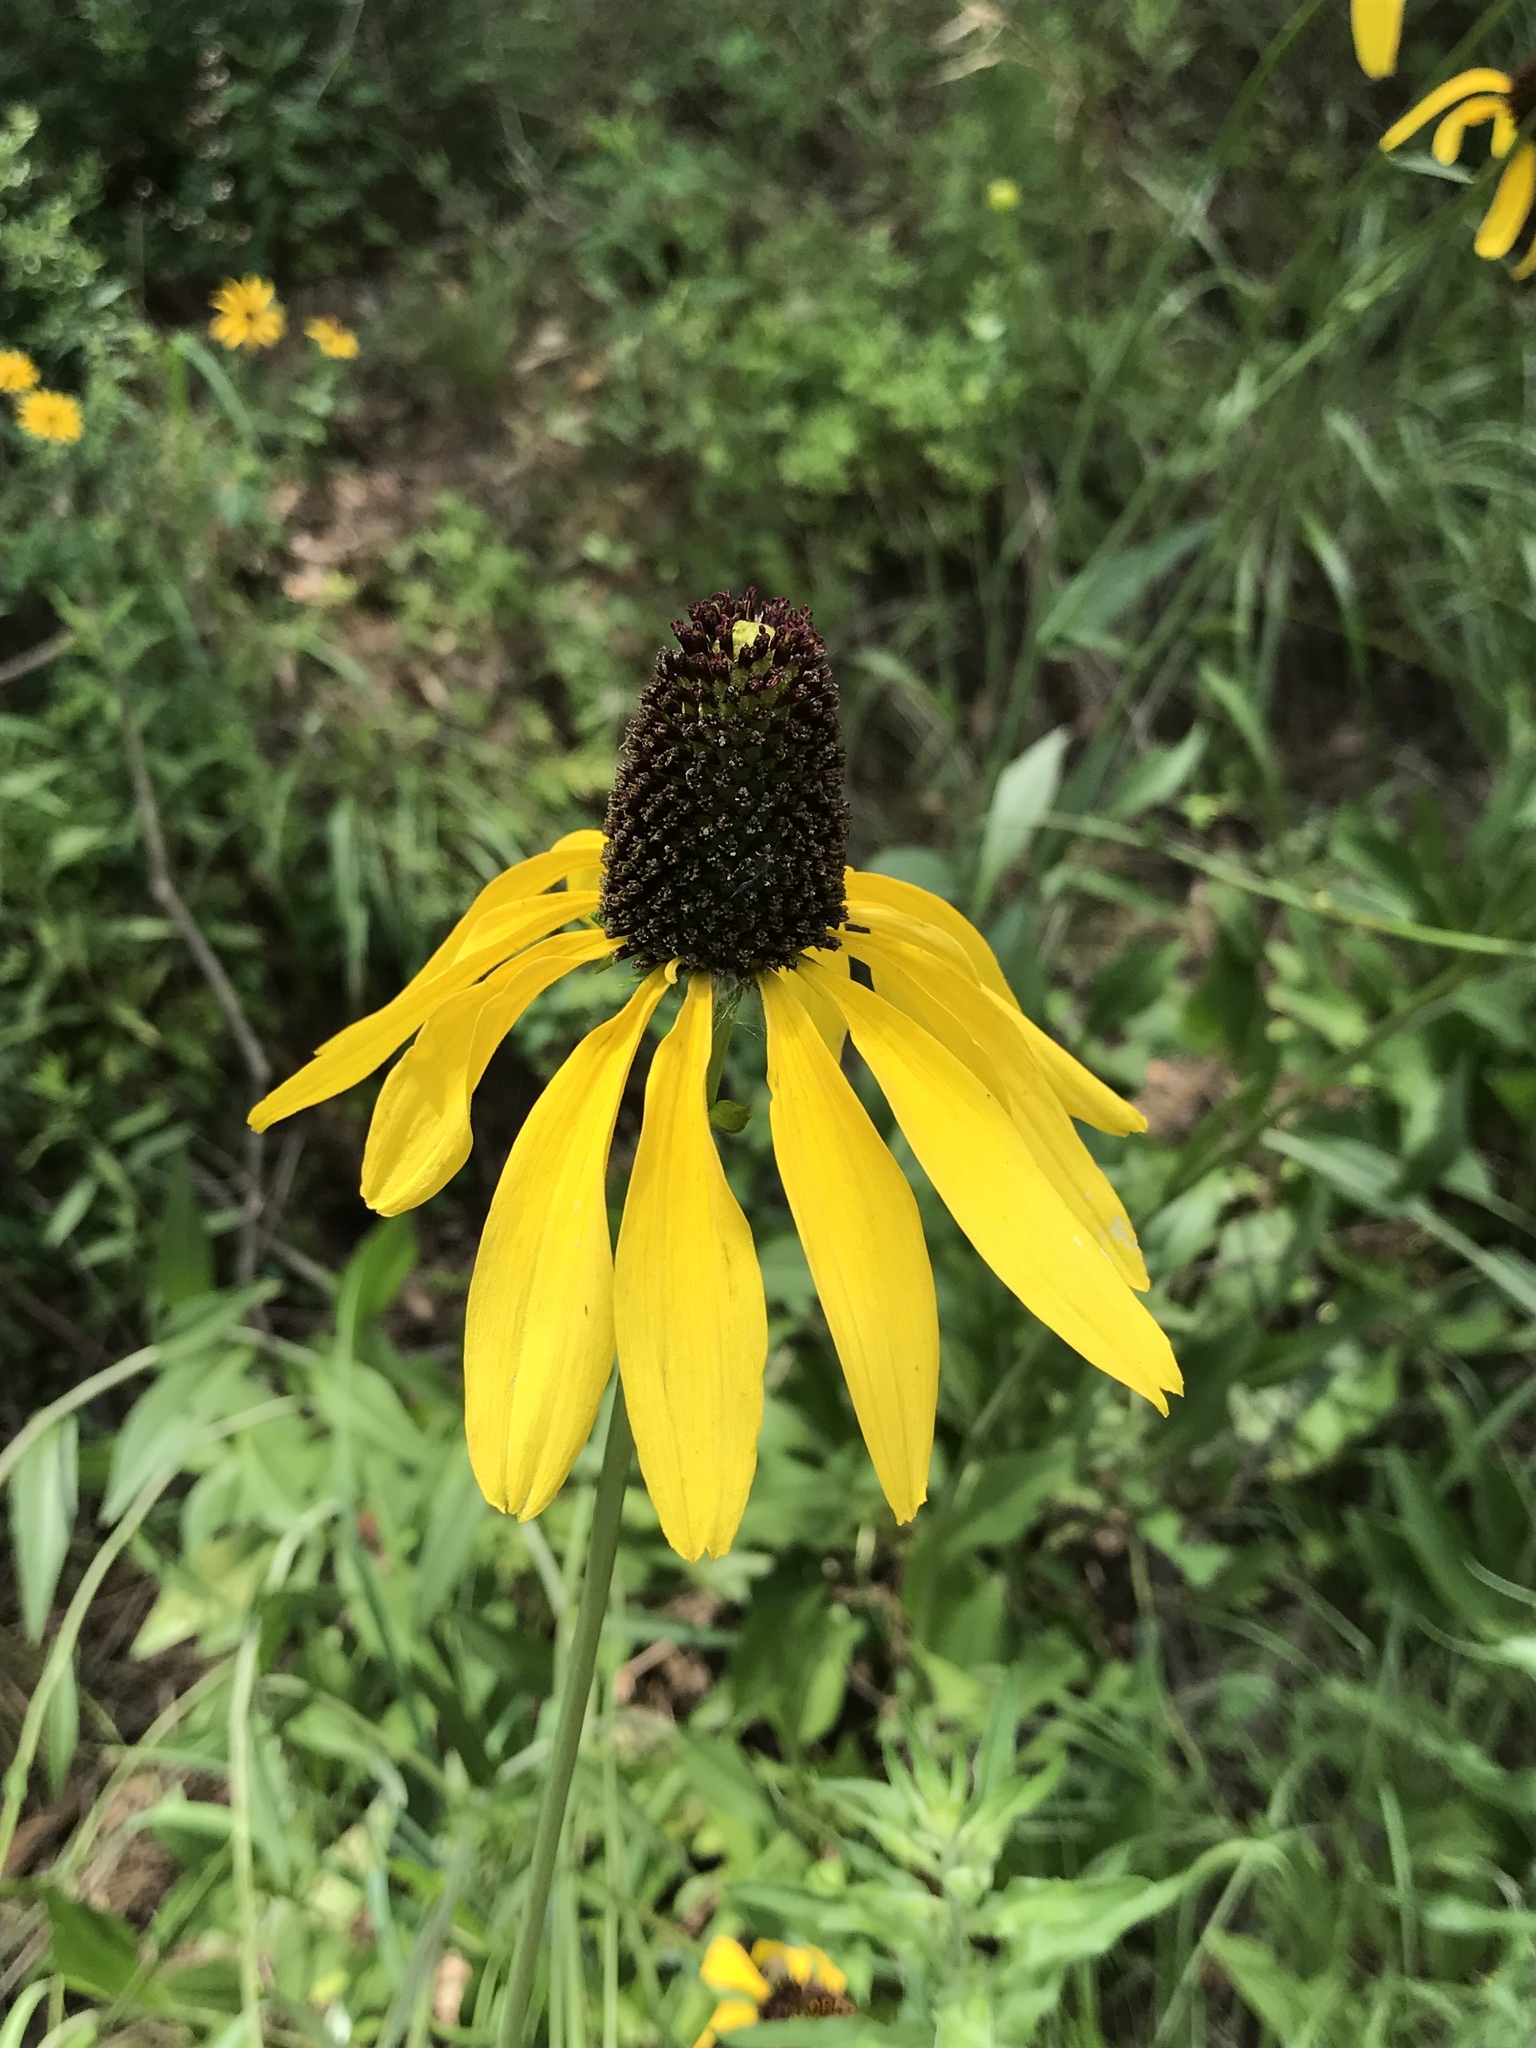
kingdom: Plantae
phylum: Tracheophyta
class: Magnoliopsida
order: Asterales
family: Asteraceae
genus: Rudbeckia
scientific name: Rudbeckia texana
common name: Texas coneflower
